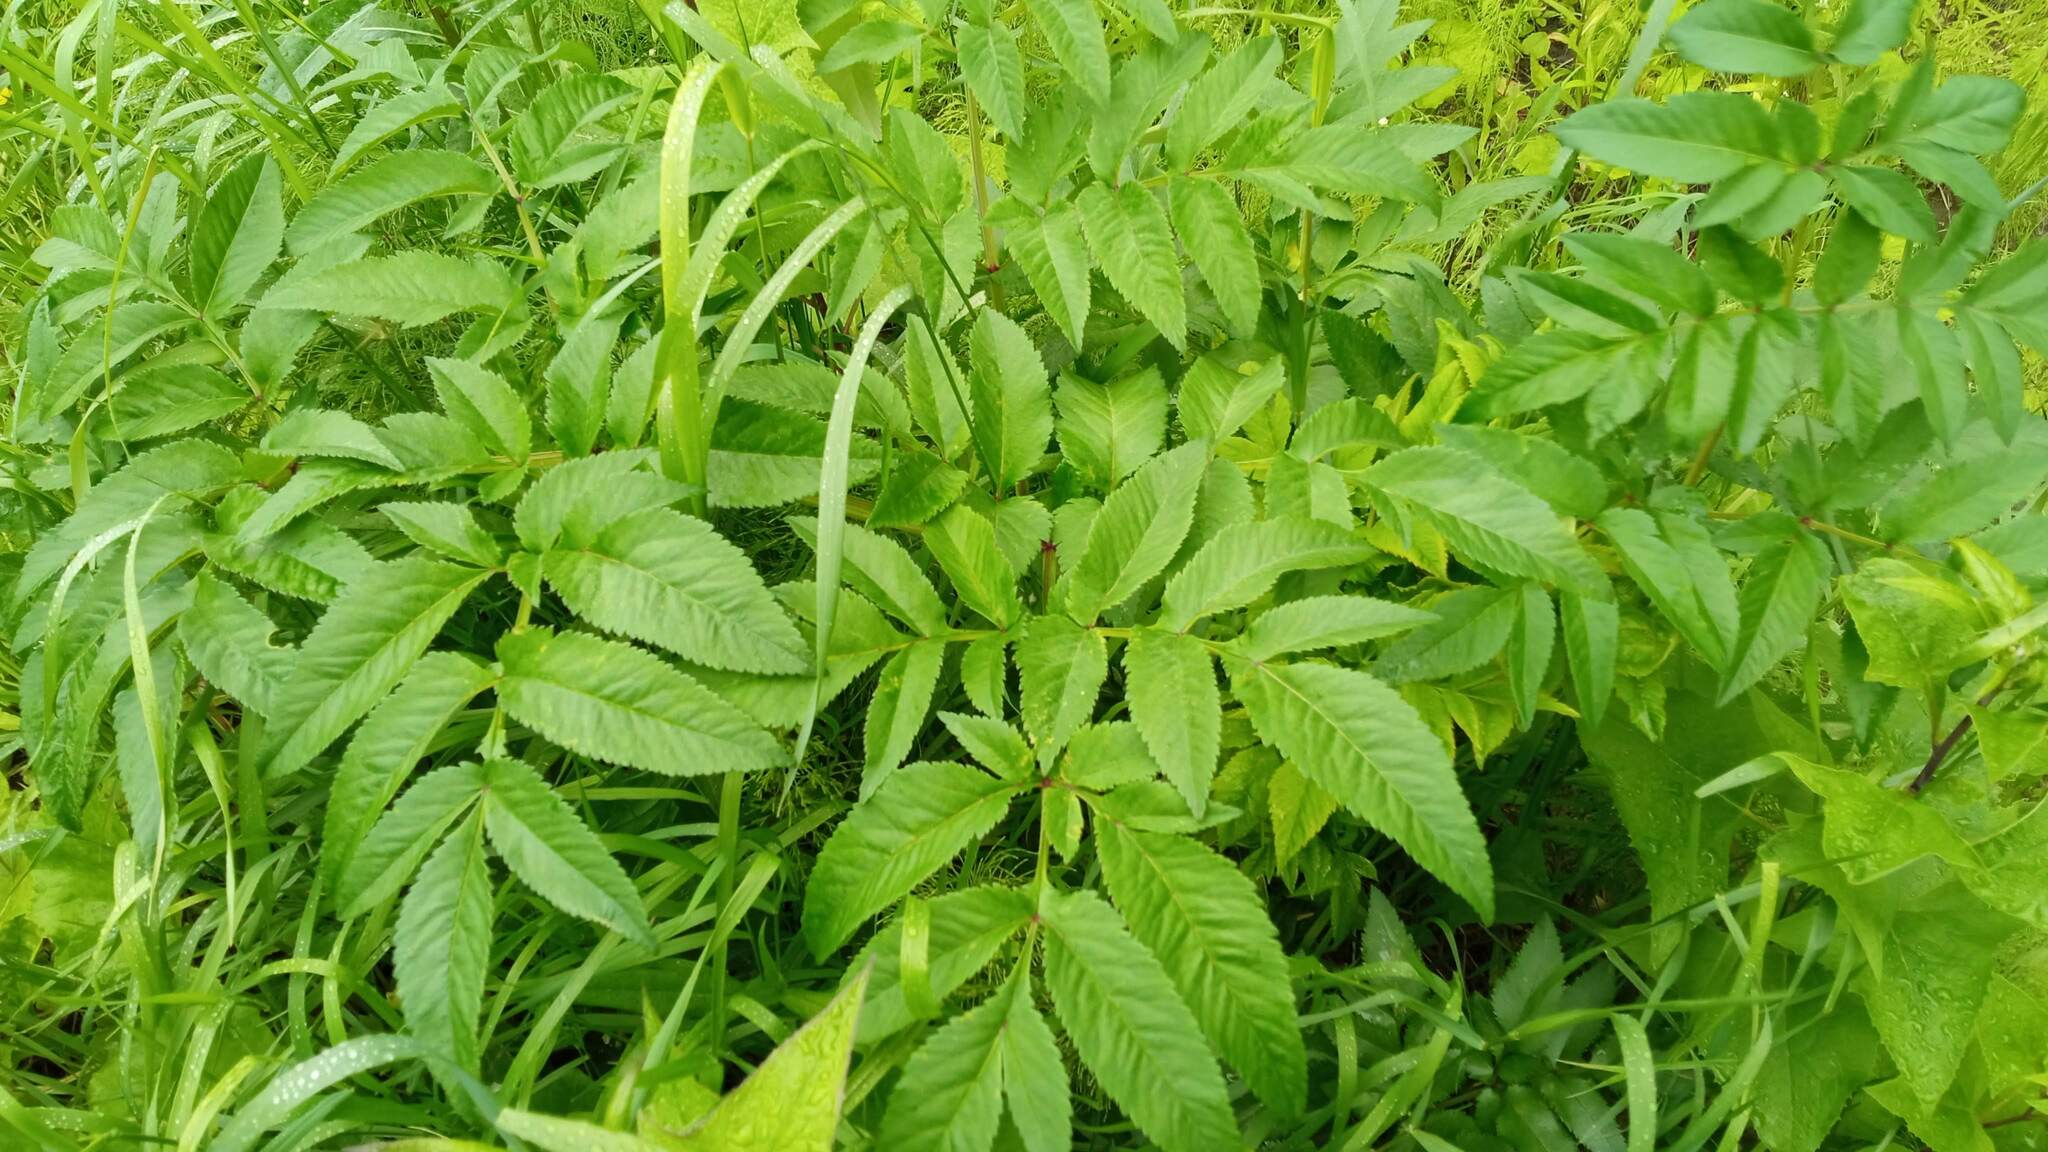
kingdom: Plantae
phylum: Tracheophyta
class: Magnoliopsida
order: Apiales
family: Apiaceae
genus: Angelica
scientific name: Angelica sylvestris
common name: Wild angelica
